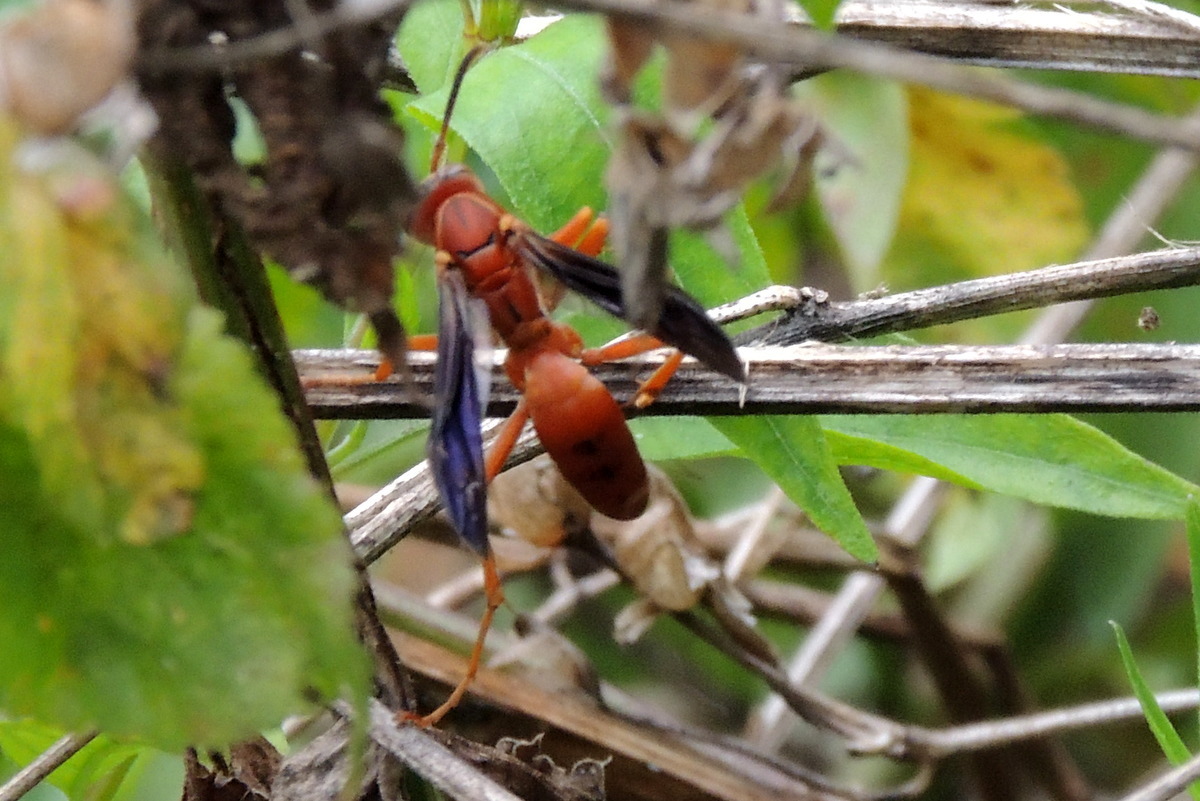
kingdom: Animalia
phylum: Arthropoda
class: Insecta
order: Hymenoptera
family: Vespidae
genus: Fuscopolistes
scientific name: Fuscopolistes
